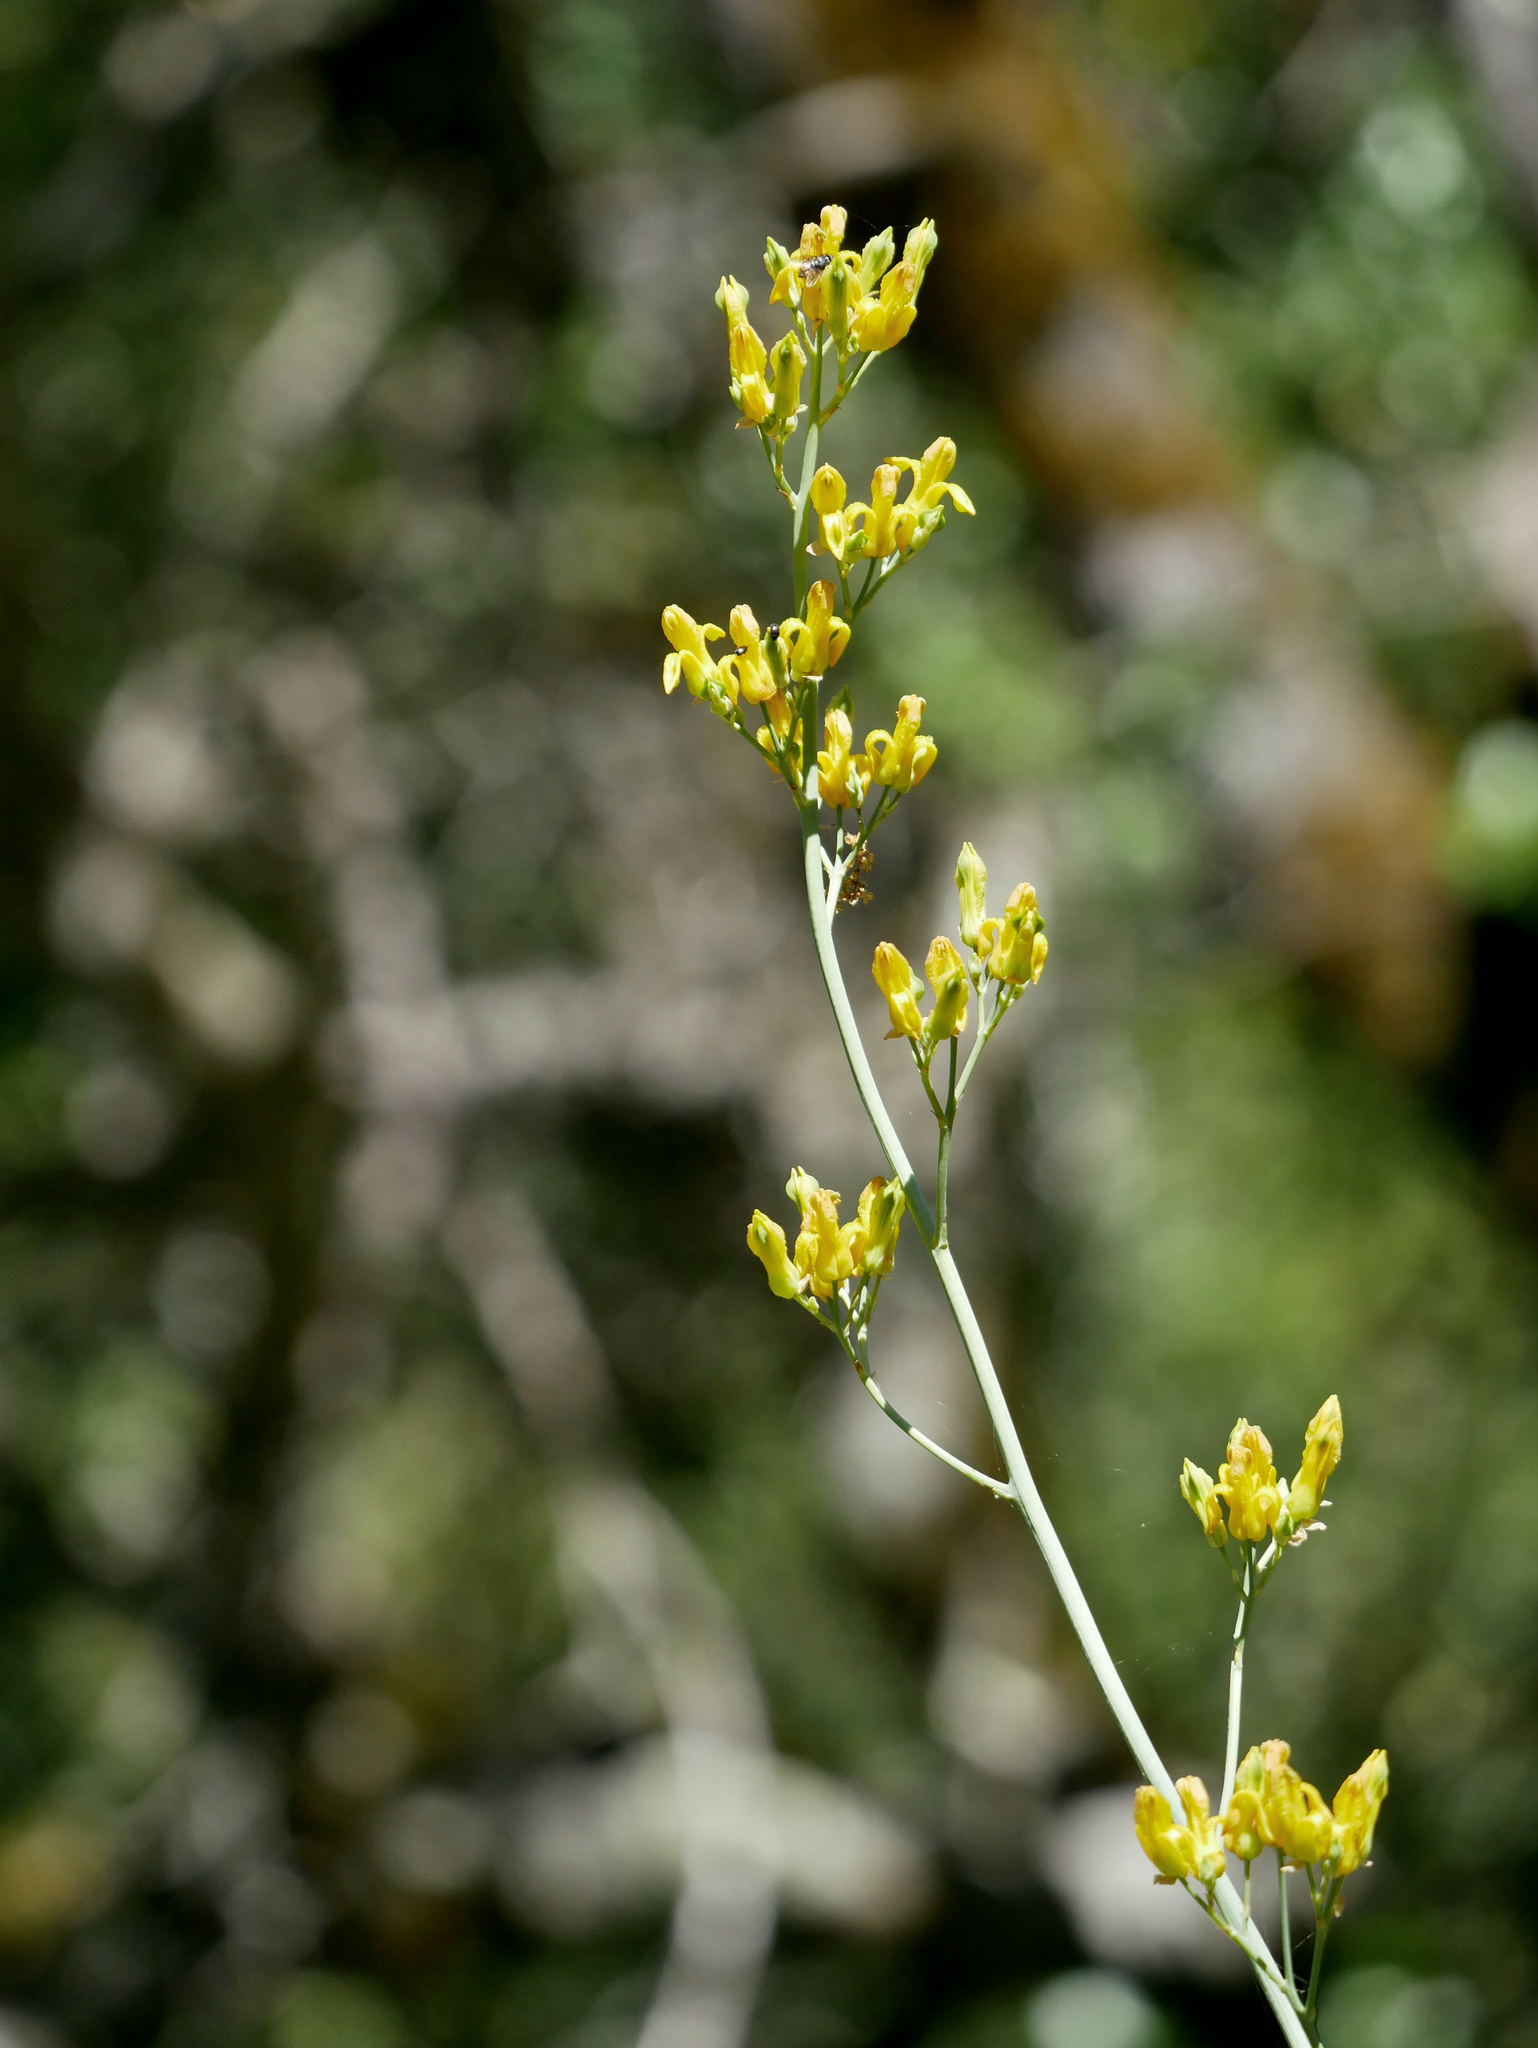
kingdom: Plantae
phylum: Tracheophyta
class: Magnoliopsida
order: Ranunculales
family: Papaveraceae
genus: Ehrendorferia
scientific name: Ehrendorferia chrysantha
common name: Golden eardrops
